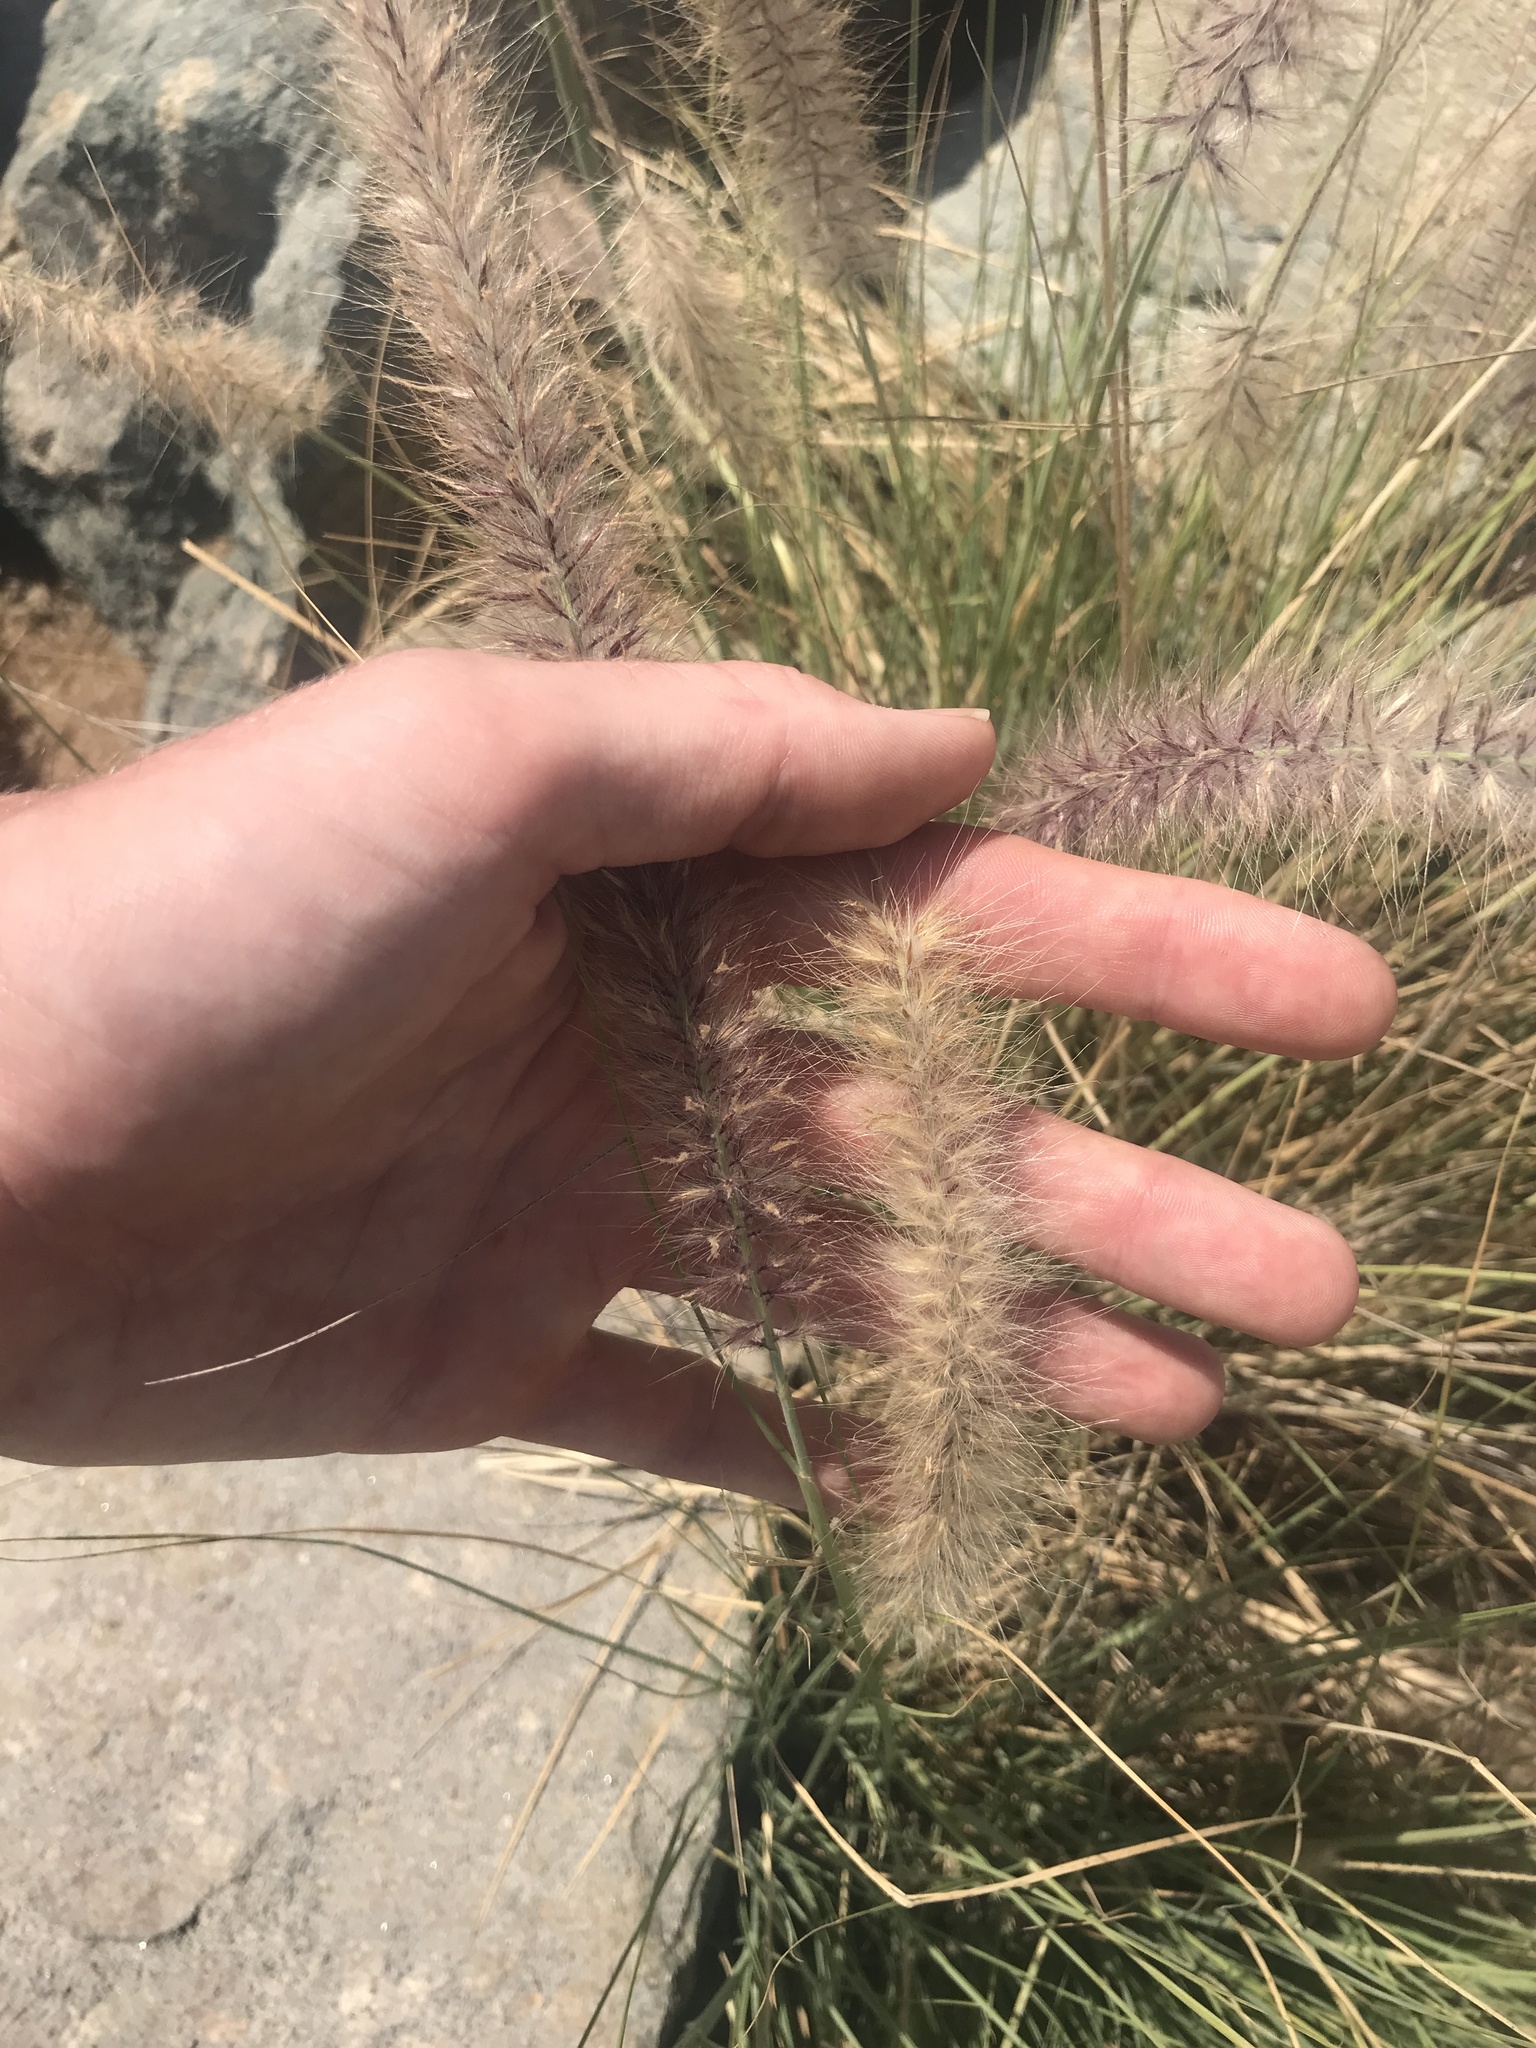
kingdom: Plantae
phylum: Tracheophyta
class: Liliopsida
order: Poales
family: Poaceae
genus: Cenchrus
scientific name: Cenchrus setaceus
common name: Crimson fountaingrass
